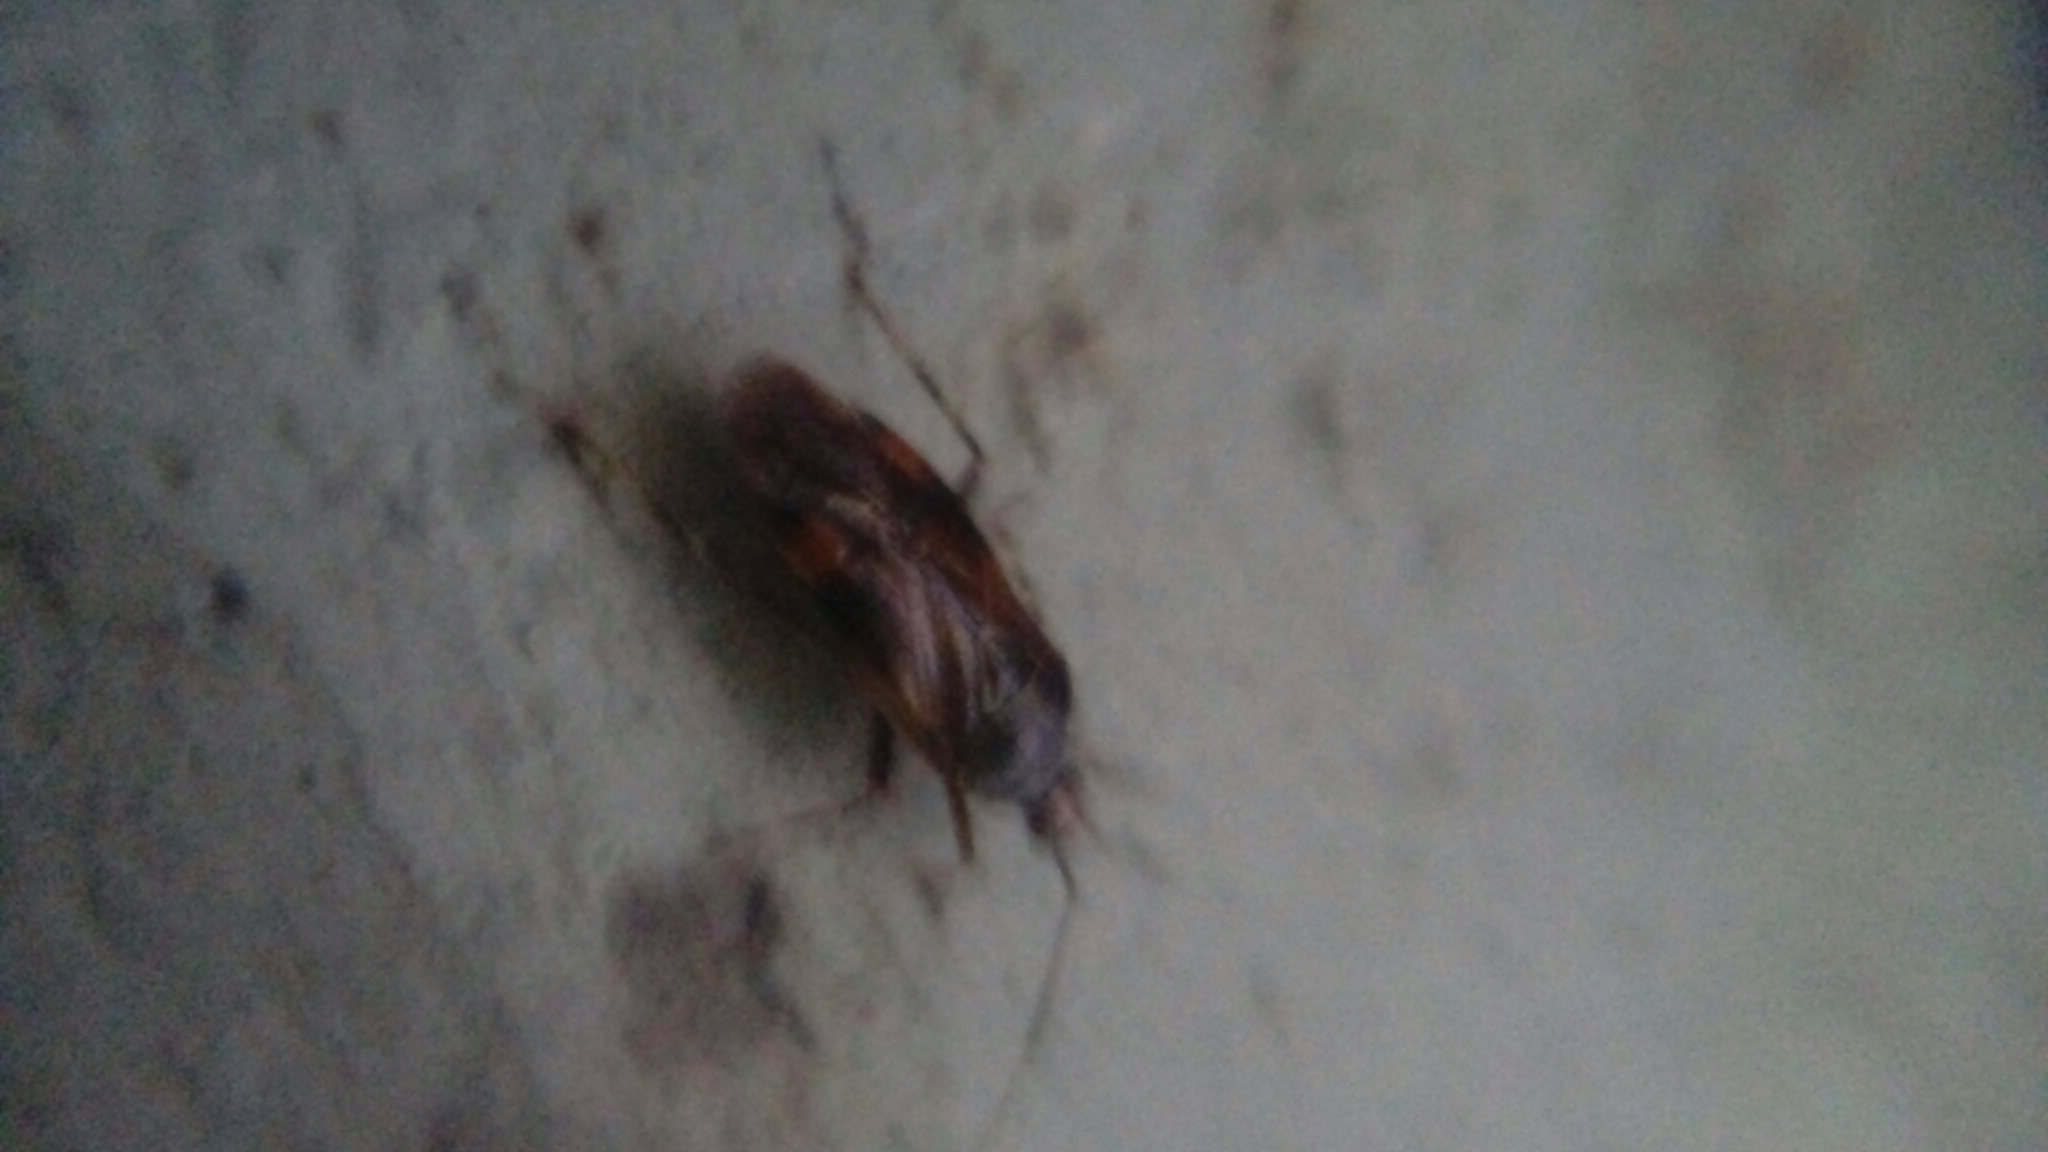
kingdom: Animalia
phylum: Arthropoda
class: Insecta
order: Hemiptera
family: Miridae
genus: Deraeocoris
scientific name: Deraeocoris flavilinea
